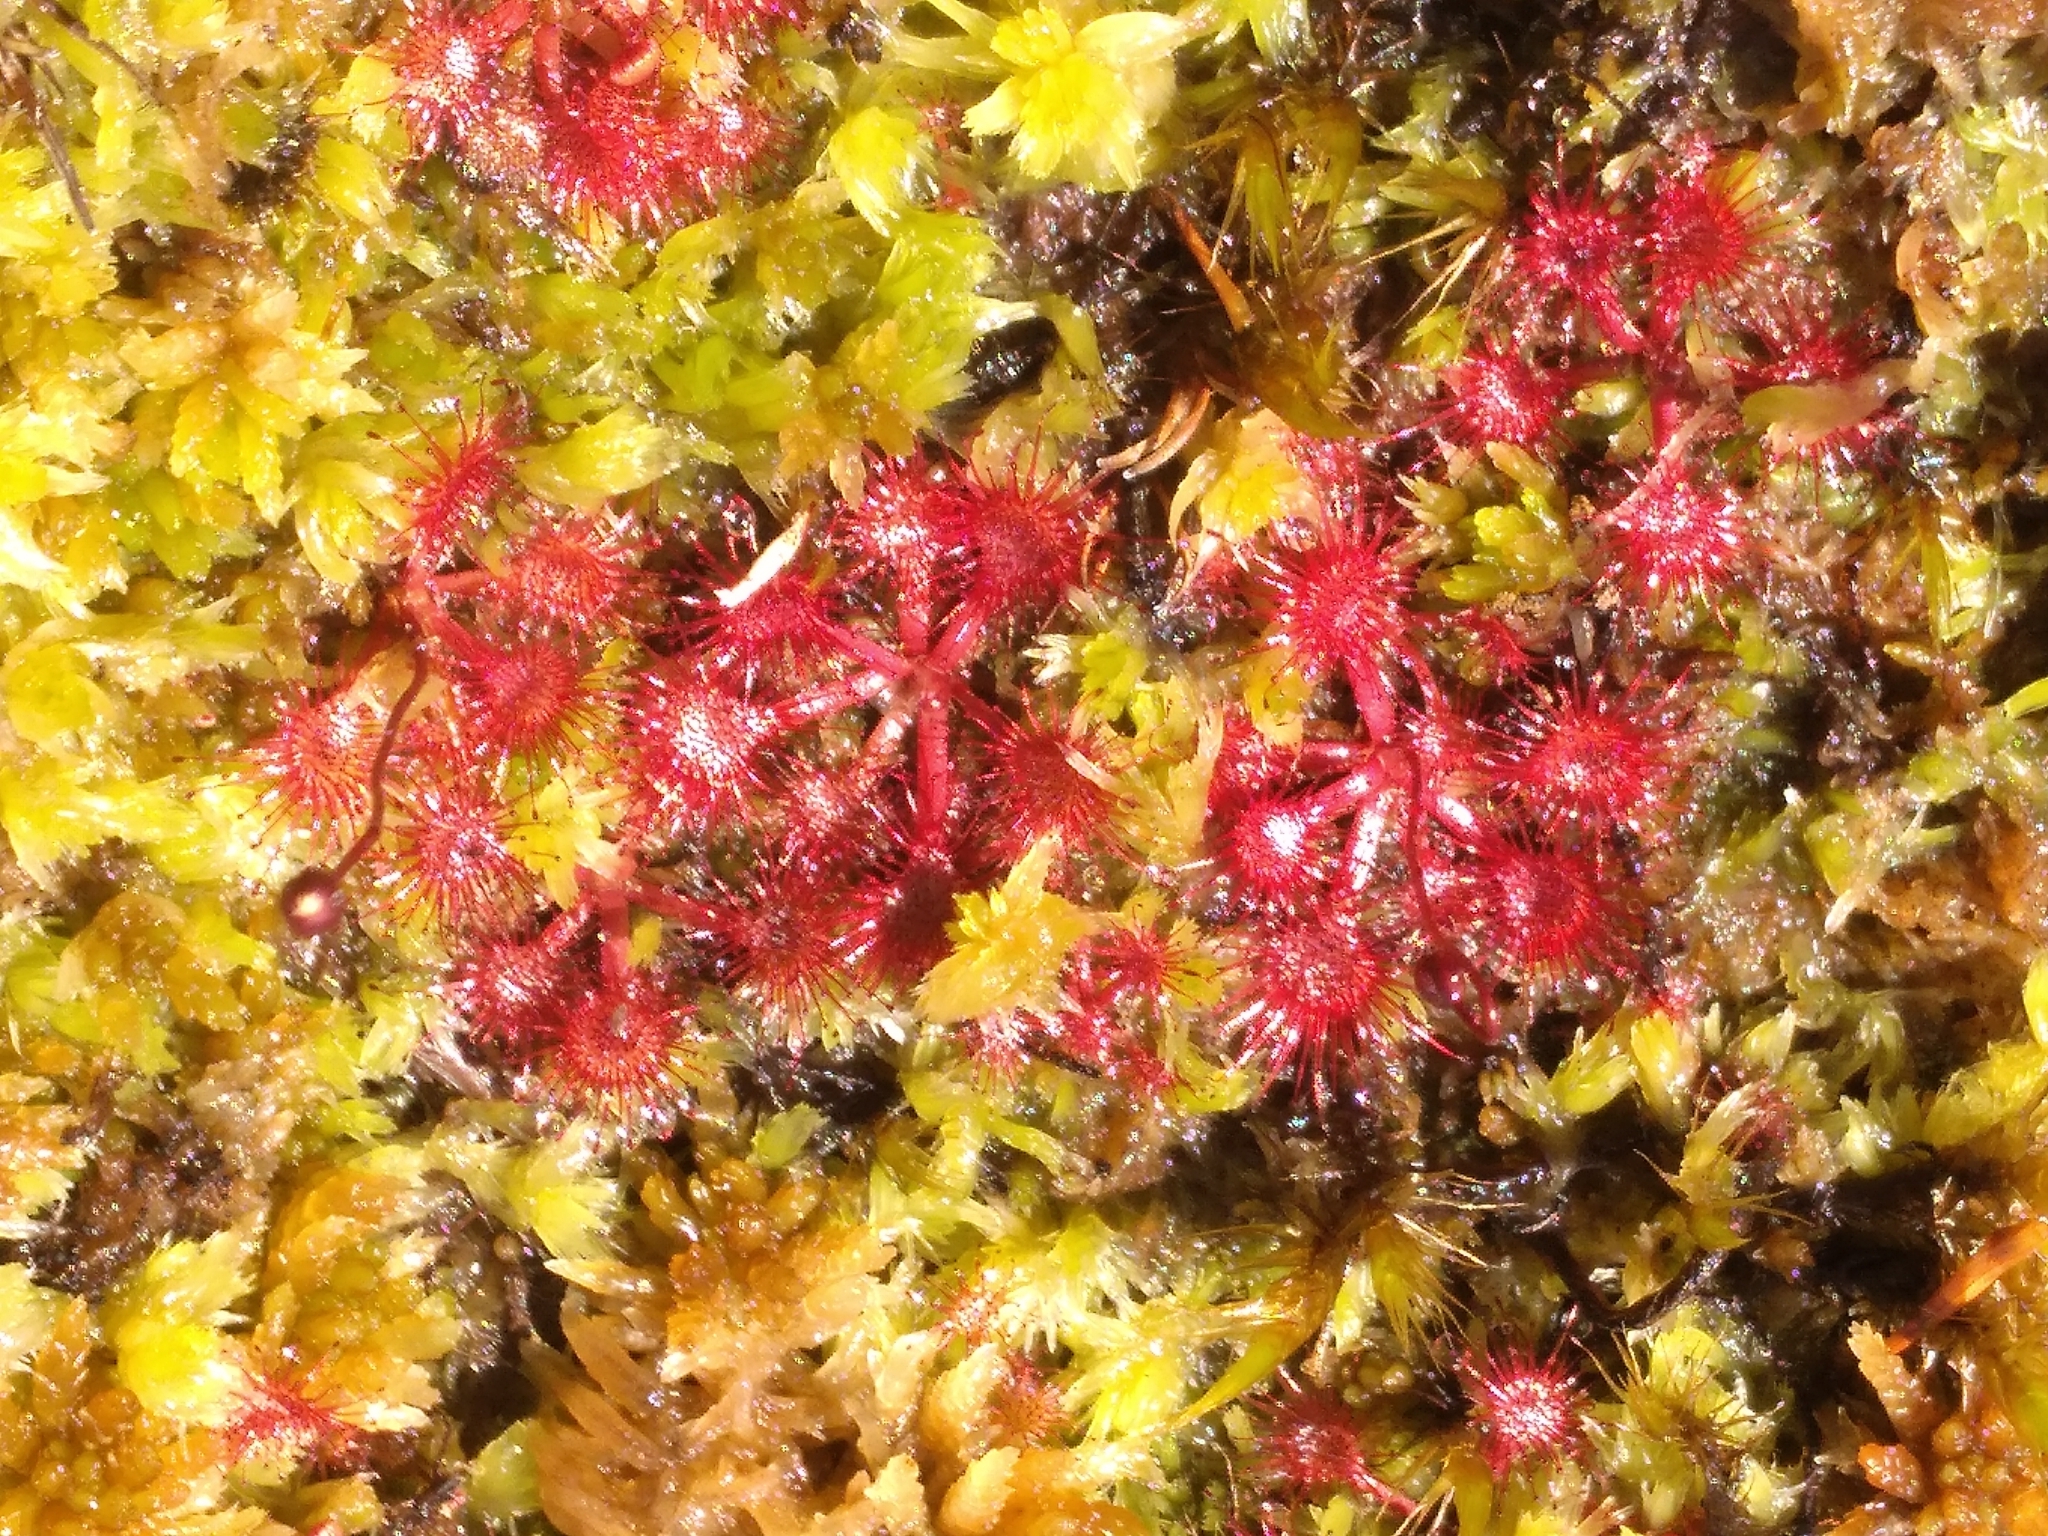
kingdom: Plantae
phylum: Tracheophyta
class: Magnoliopsida
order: Caryophyllales
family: Droseraceae
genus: Drosera
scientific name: Drosera spatulata
